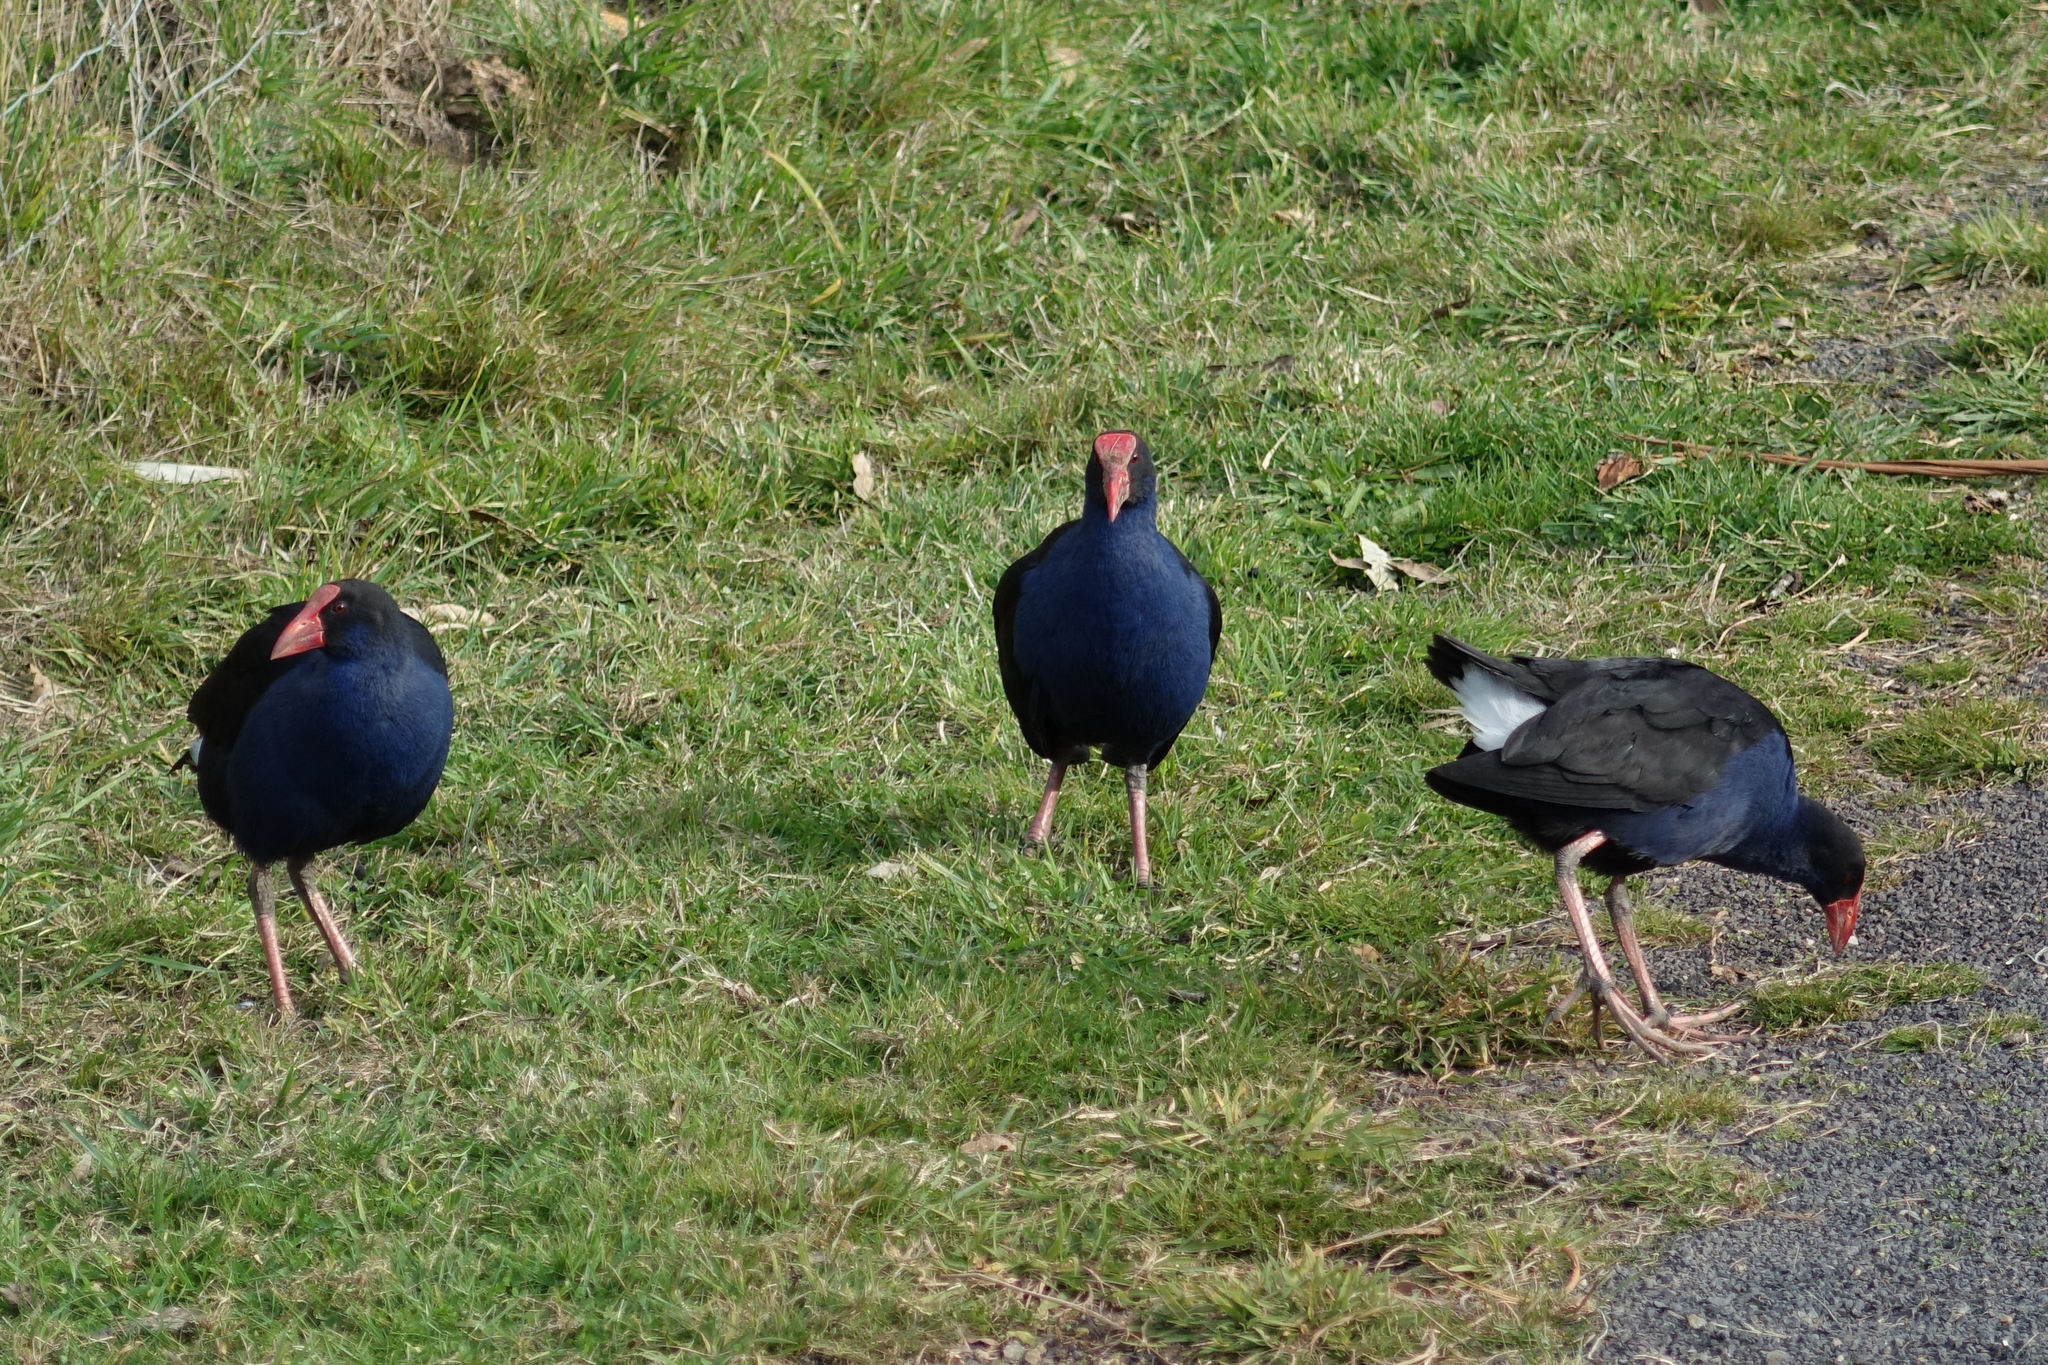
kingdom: Animalia
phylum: Chordata
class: Aves
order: Gruiformes
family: Rallidae
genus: Porphyrio
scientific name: Porphyrio melanotus
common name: Australasian swamphen
